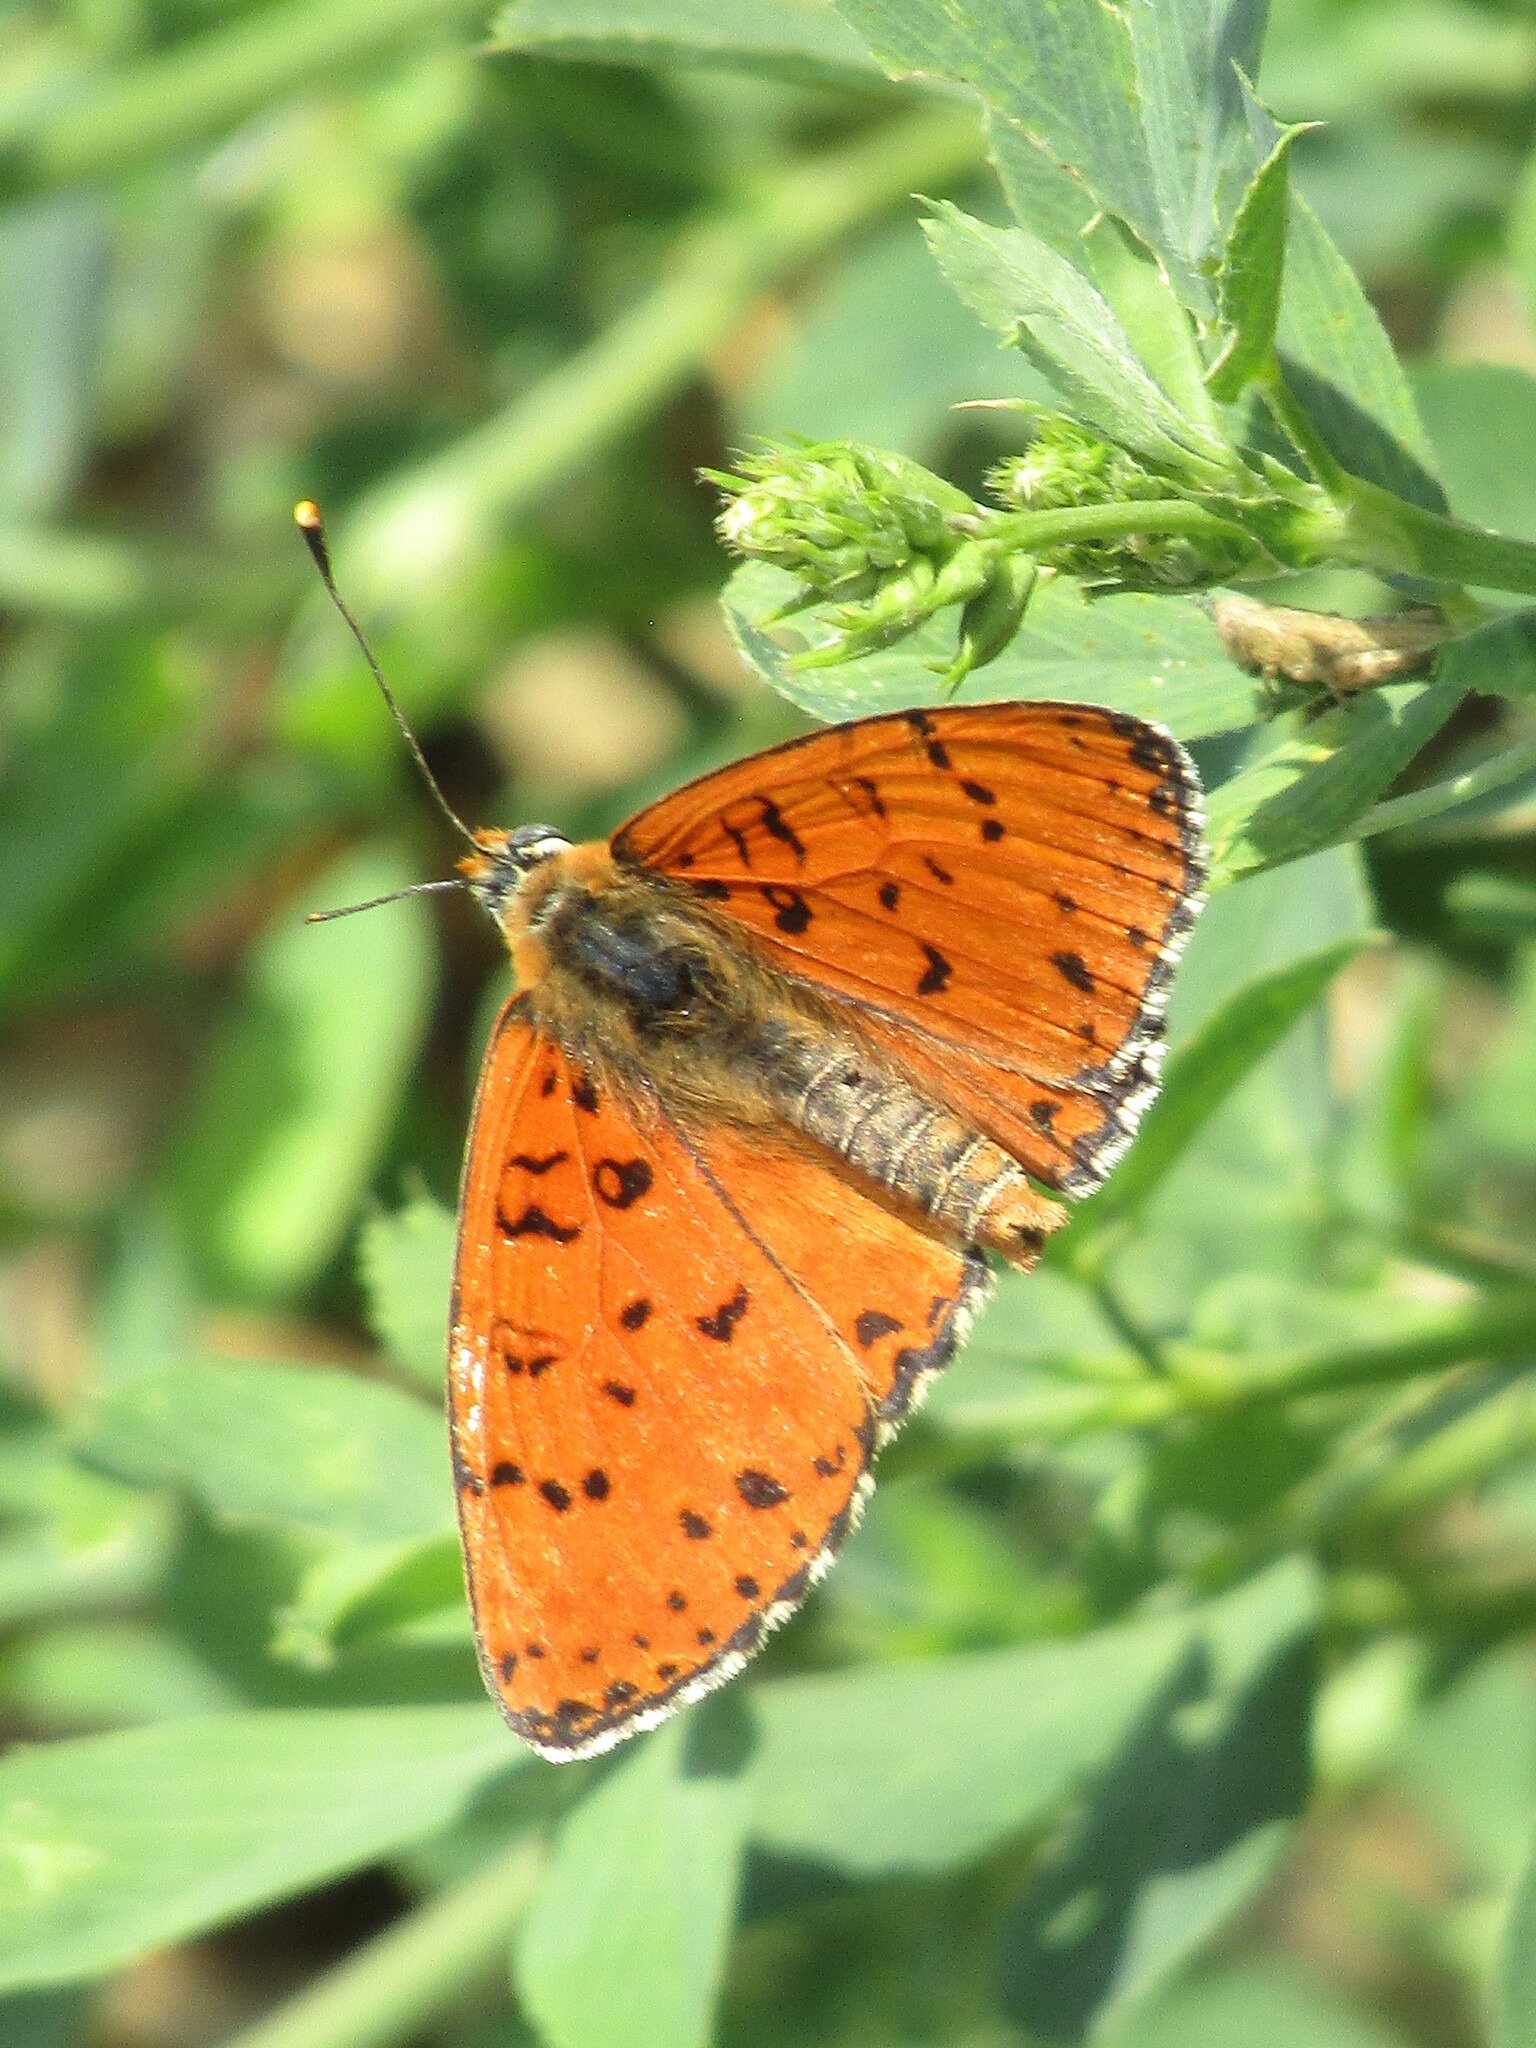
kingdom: Animalia
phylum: Arthropoda
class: Insecta
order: Lepidoptera
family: Nymphalidae
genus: Melitaea
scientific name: Melitaea didyma
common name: Spotted fritillary
